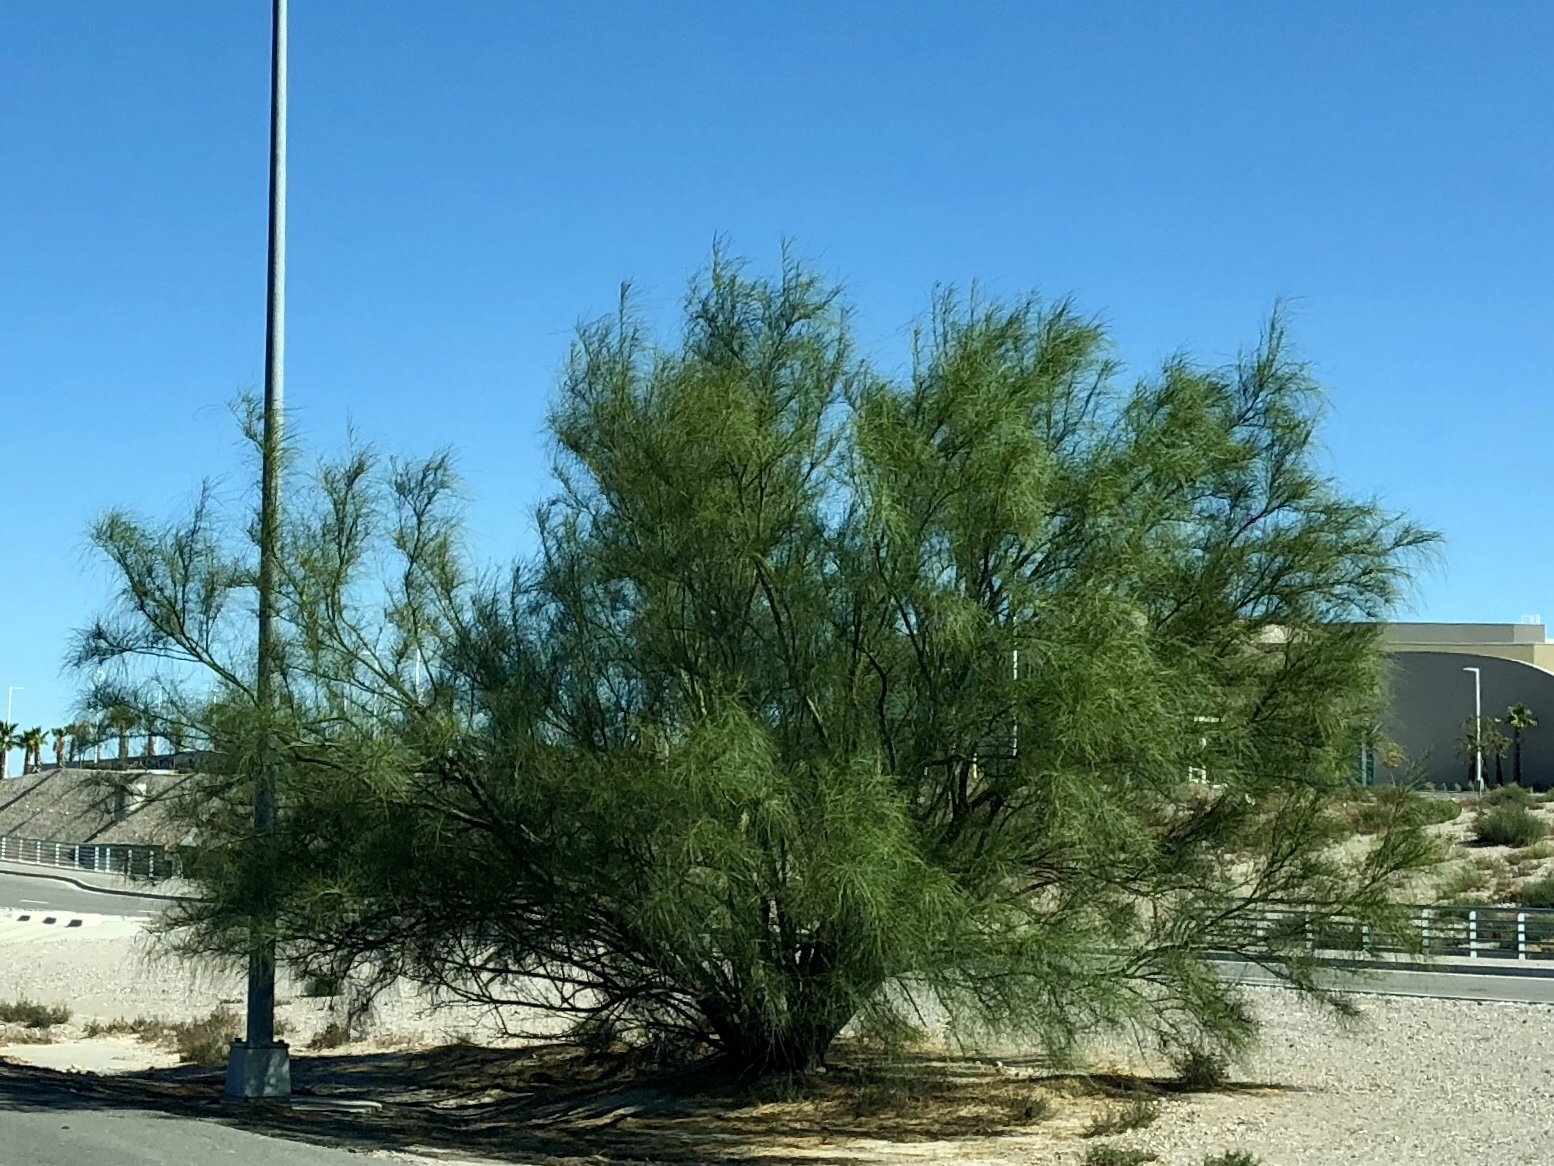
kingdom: Plantae
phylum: Tracheophyta
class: Magnoliopsida
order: Fabales
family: Fabaceae
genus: Parkinsonia
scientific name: Parkinsonia aculeata
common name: Jerusalem thorn
